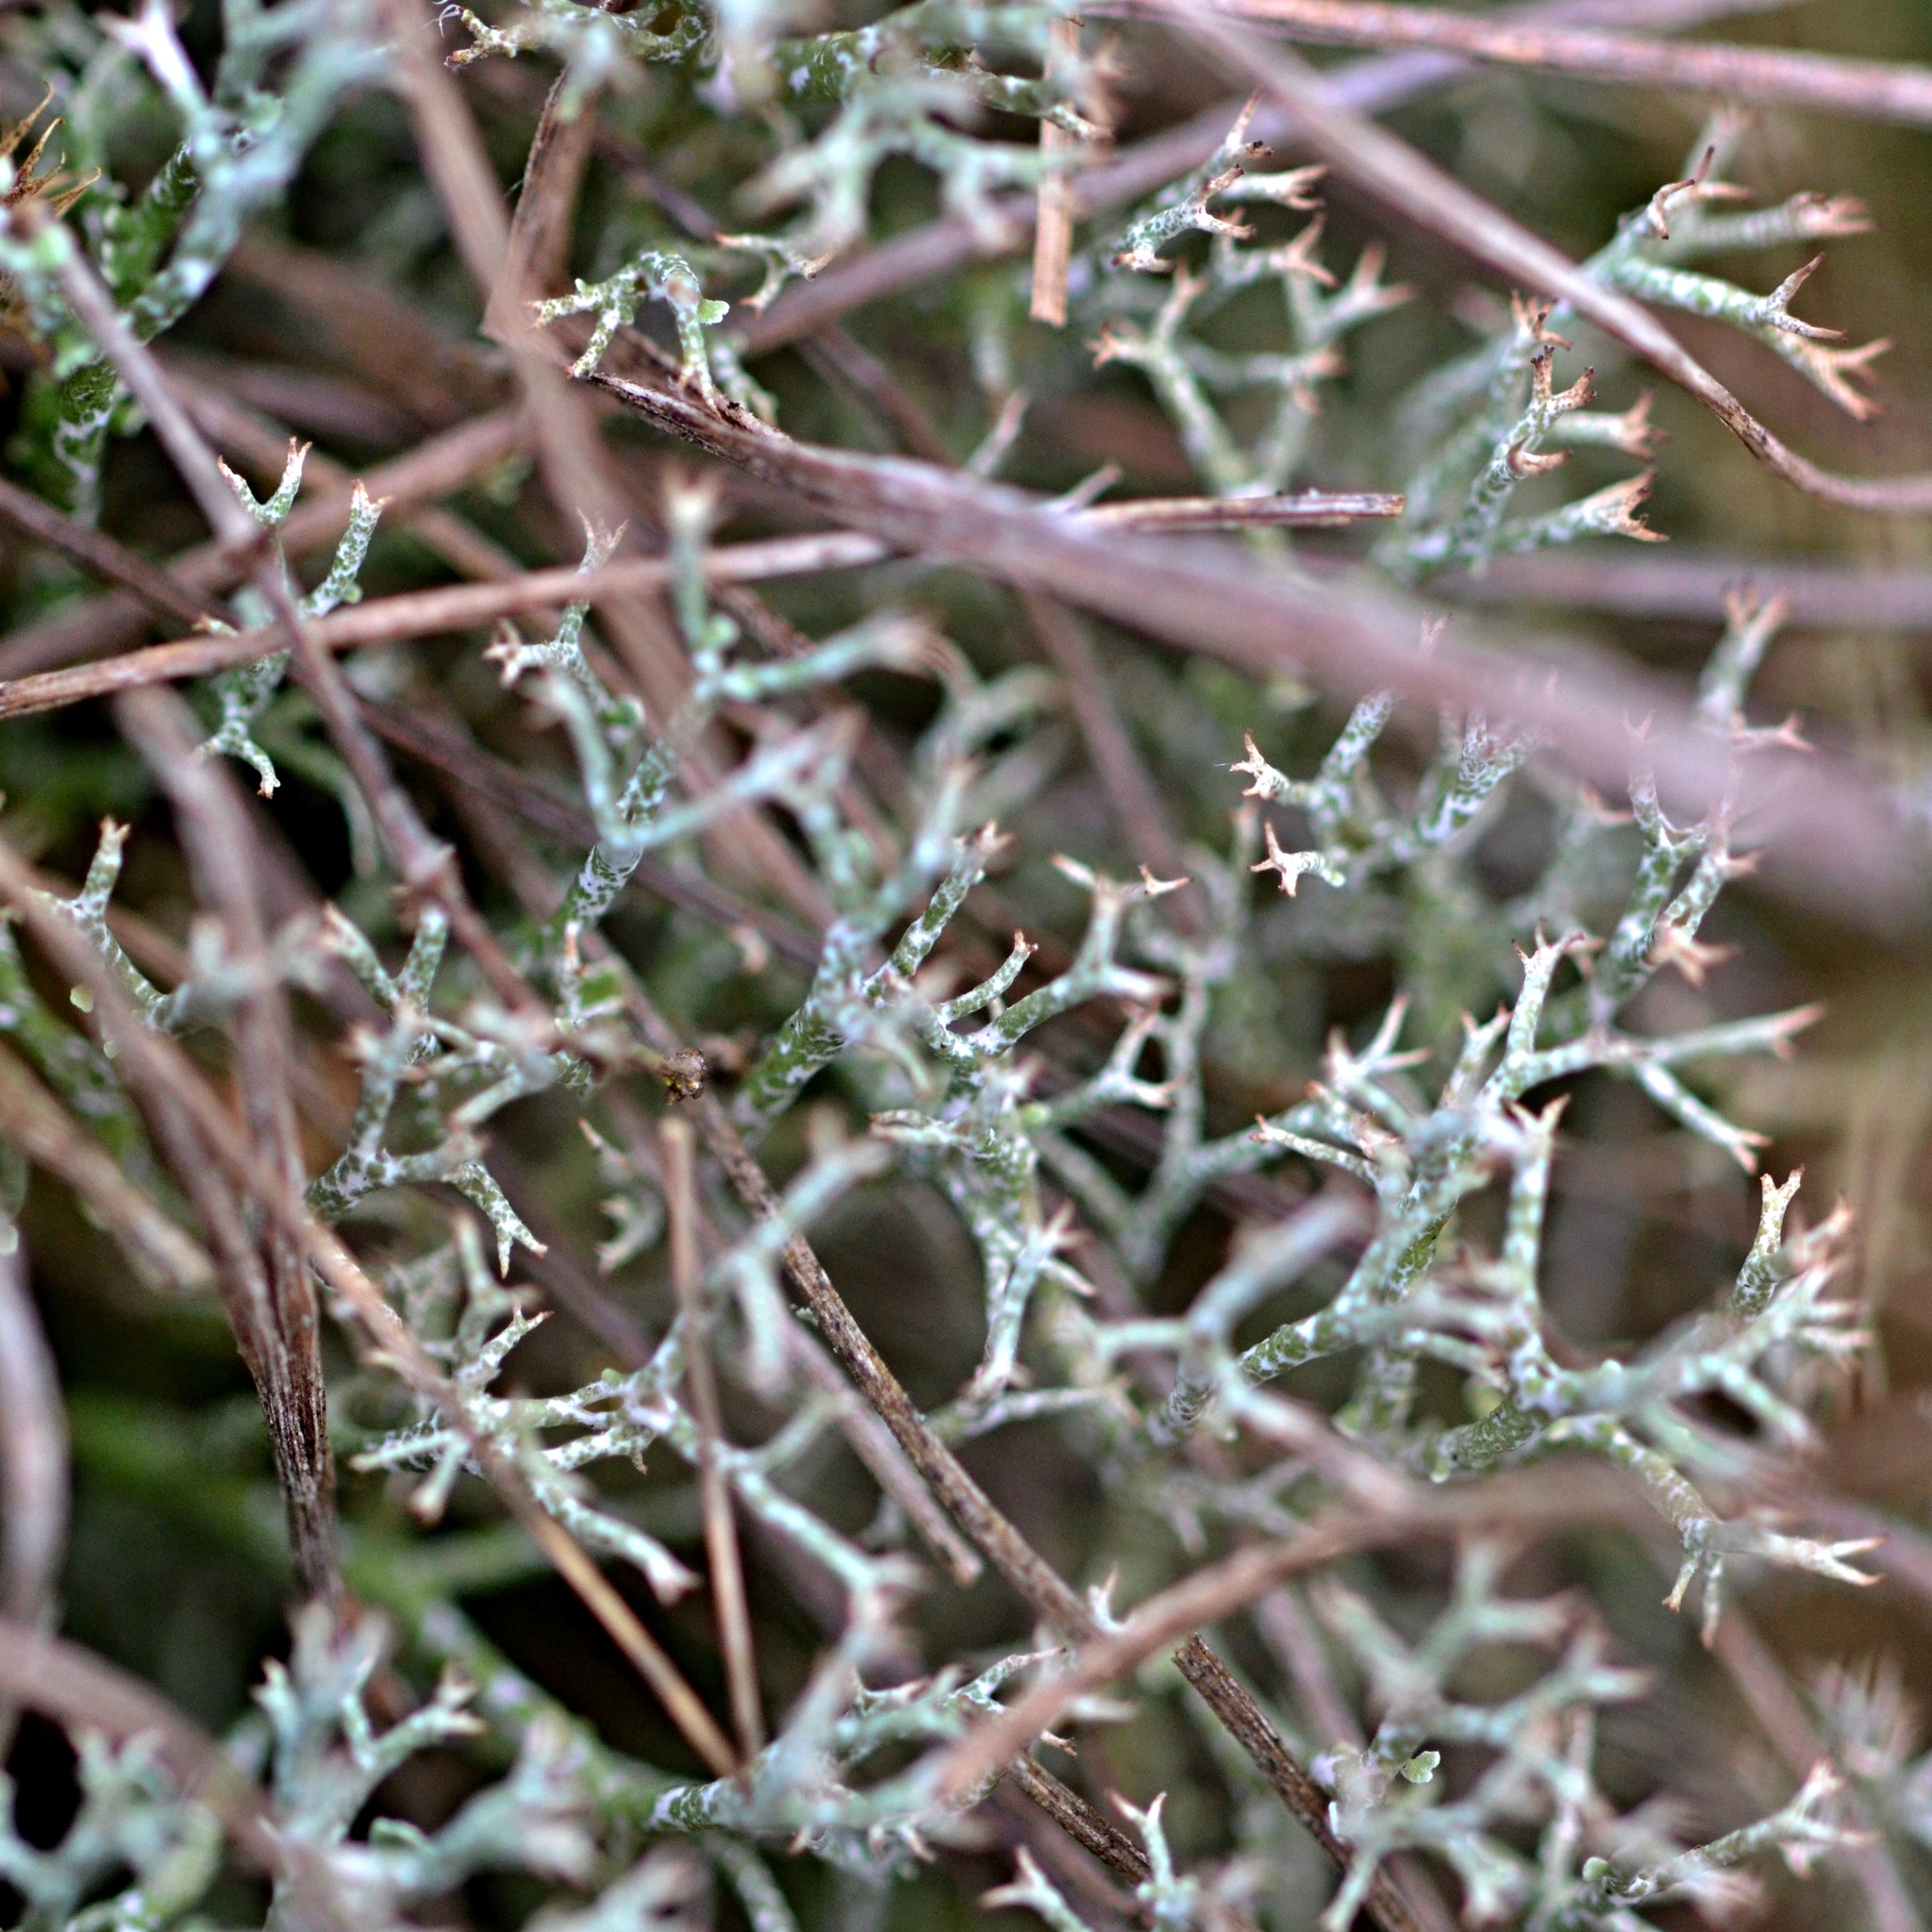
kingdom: Fungi
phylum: Ascomycota
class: Lecanoromycetes
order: Lecanorales
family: Cladoniaceae
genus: Cladonia
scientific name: Cladonia rangiformis
